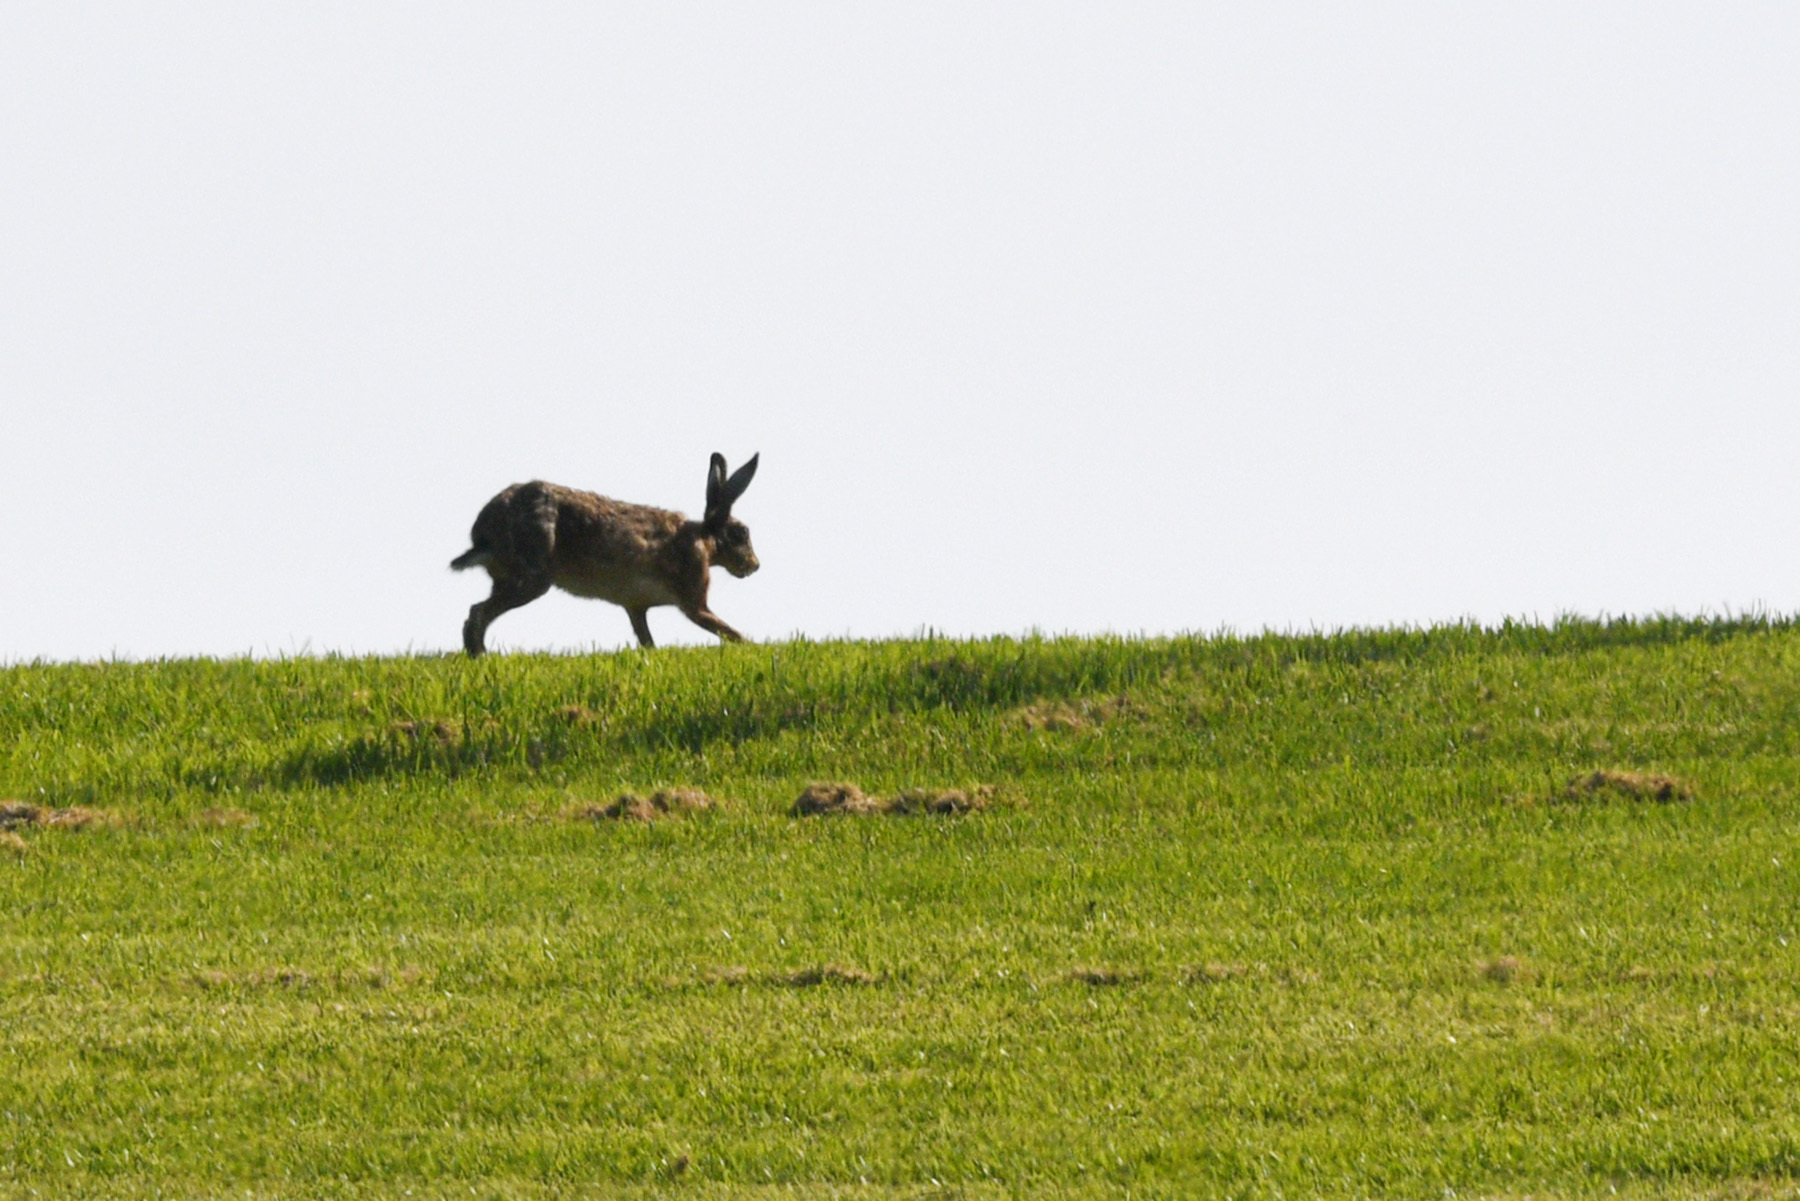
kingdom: Animalia
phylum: Chordata
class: Mammalia
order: Lagomorpha
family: Leporidae
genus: Lepus
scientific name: Lepus europaeus
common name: European hare
